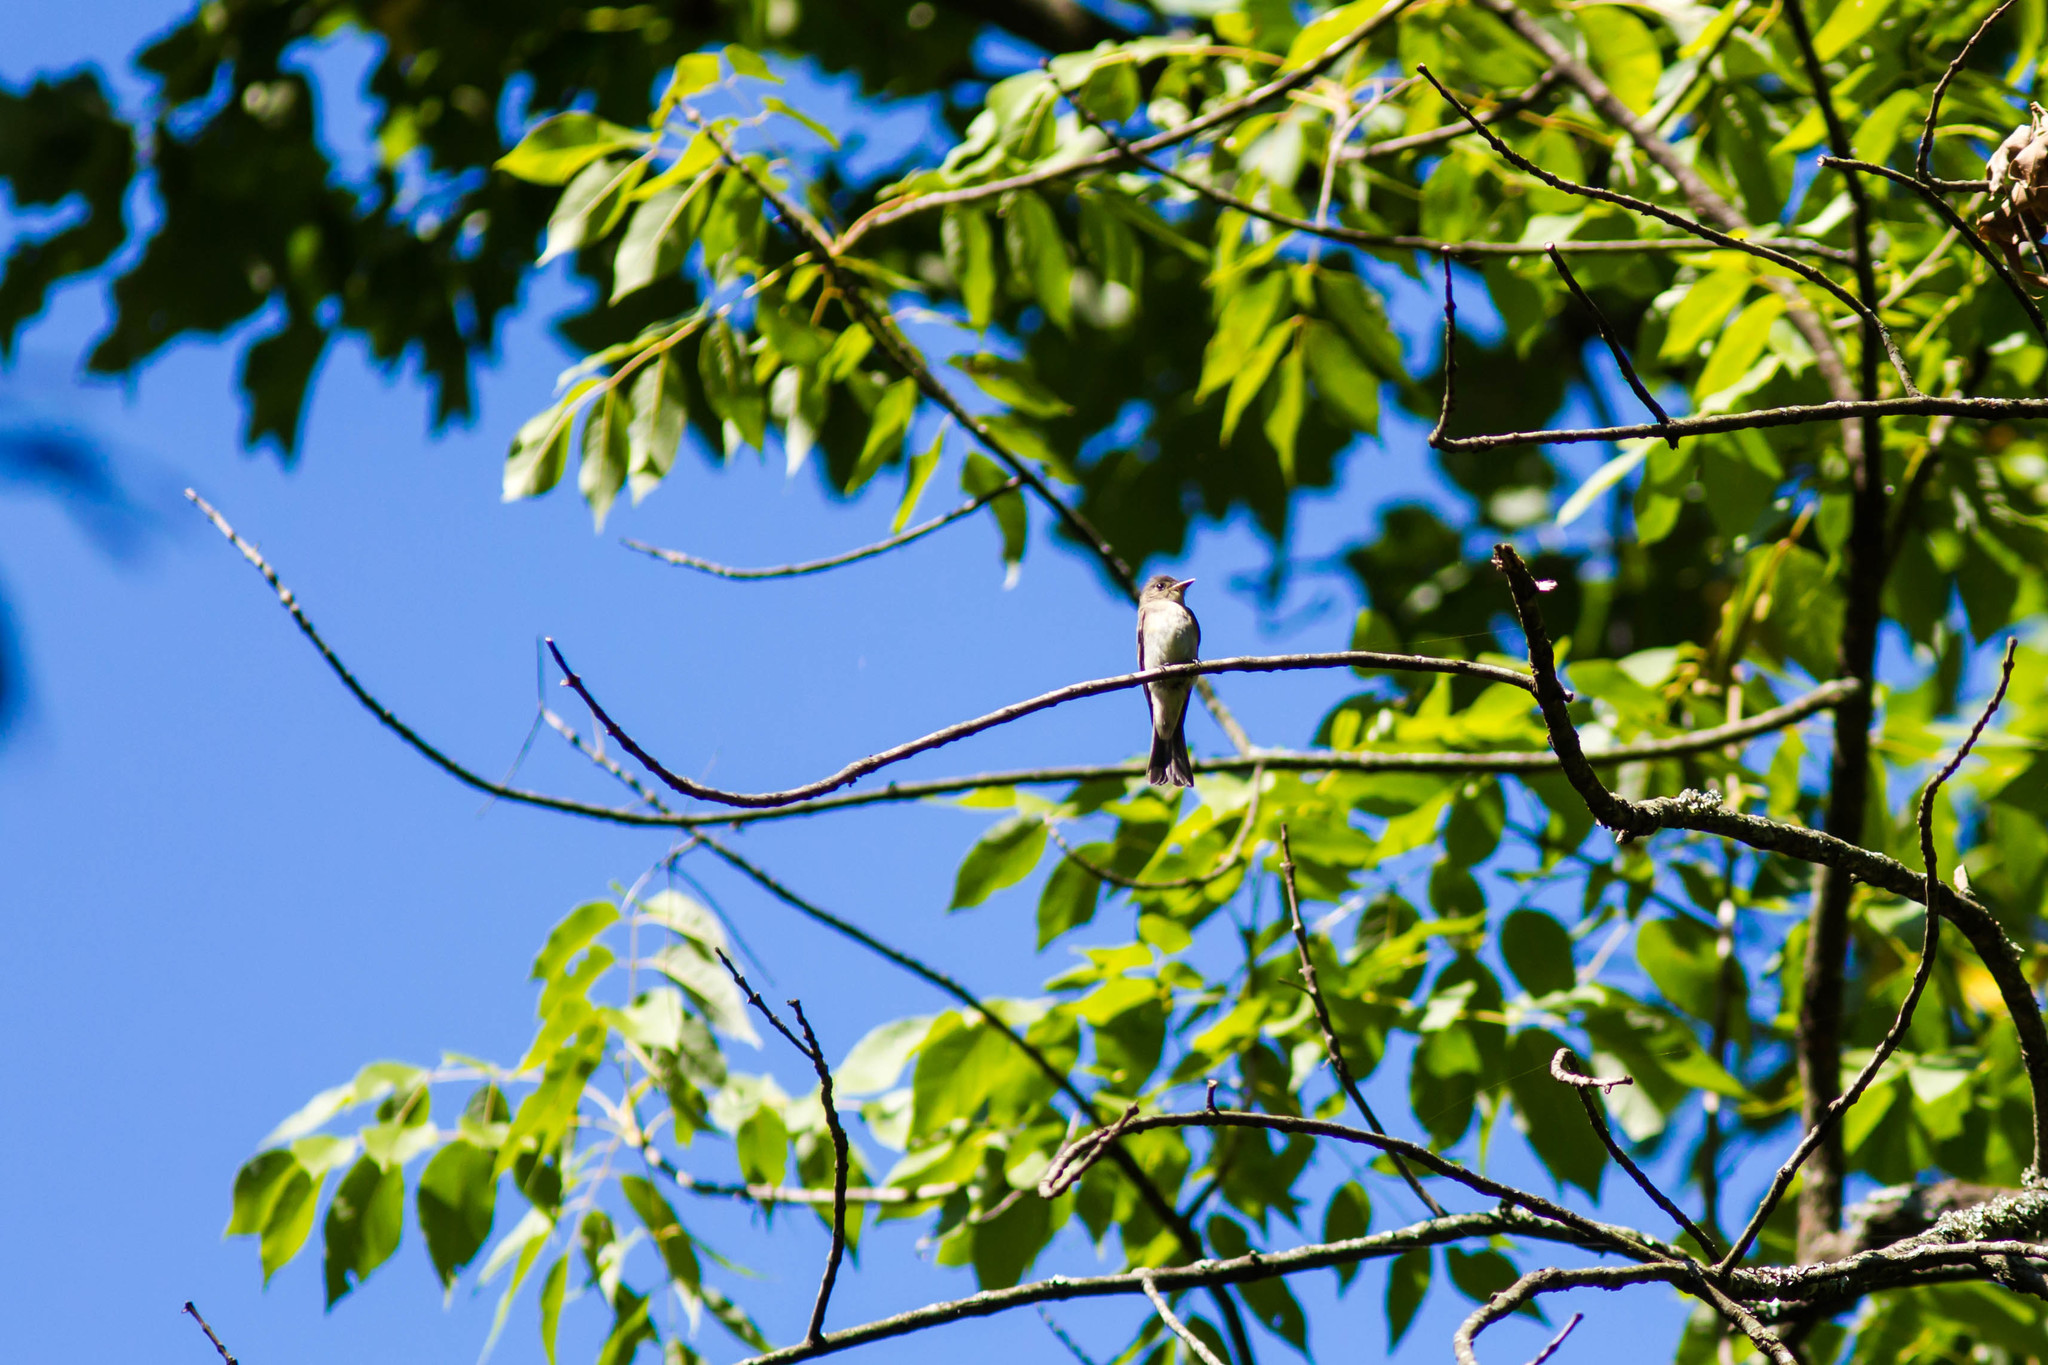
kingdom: Animalia
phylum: Chordata
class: Aves
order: Passeriformes
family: Tyrannidae
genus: Contopus
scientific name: Contopus virens
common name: Eastern wood-pewee
